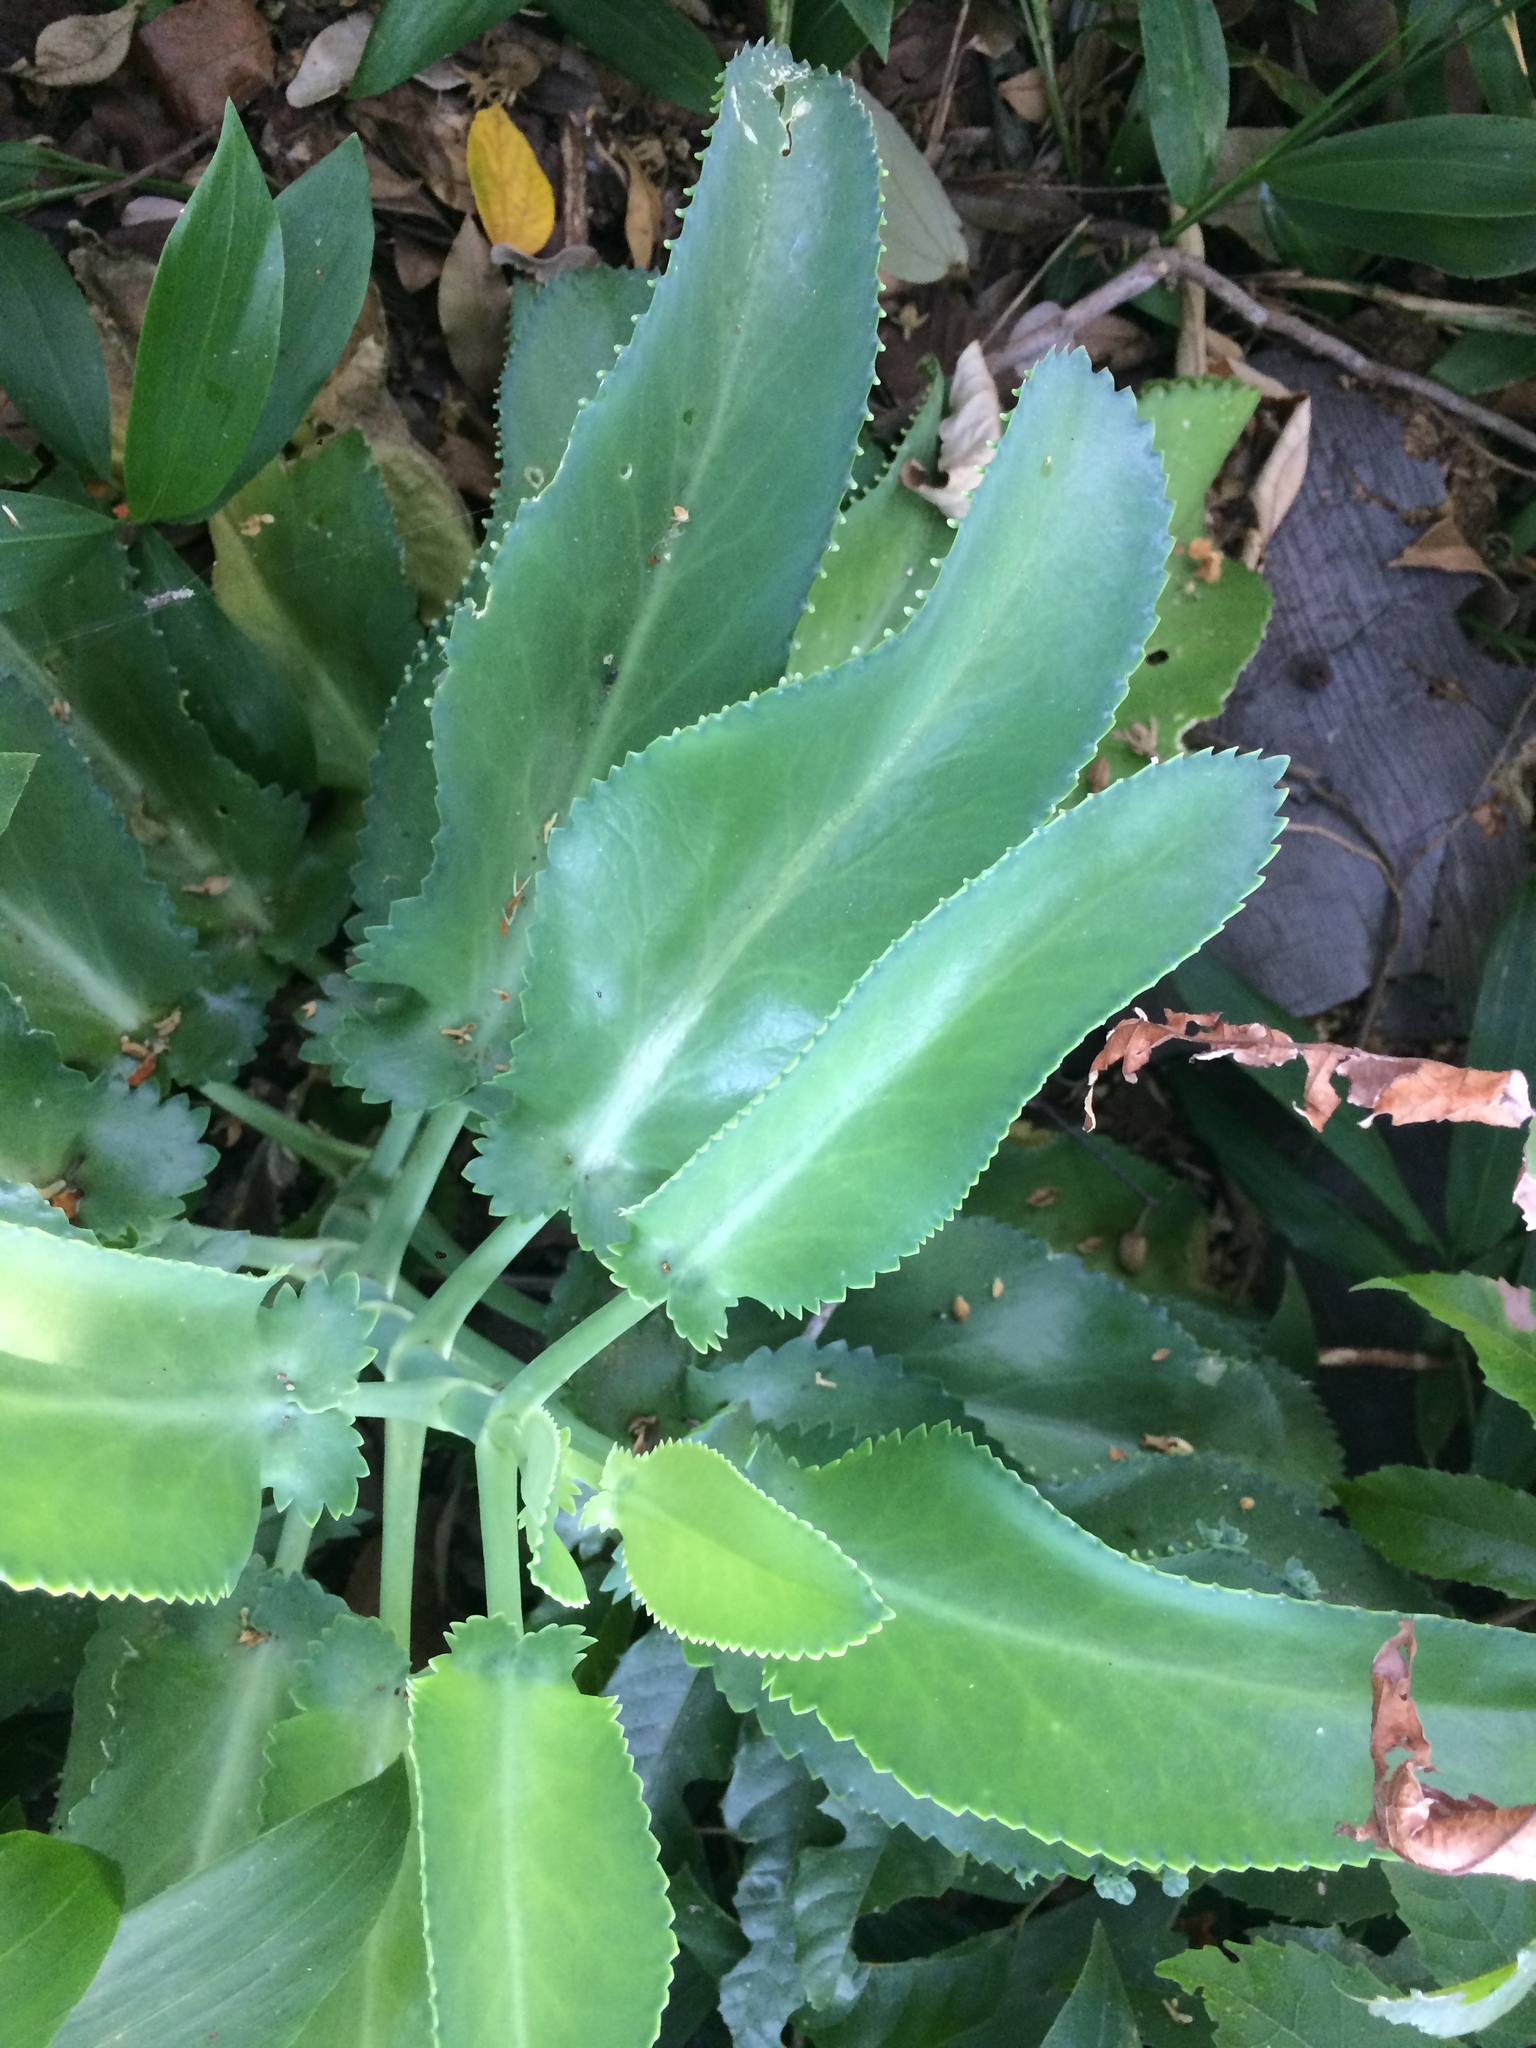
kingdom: Plantae
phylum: Tracheophyta
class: Magnoliopsida
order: Saxifragales
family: Crassulaceae
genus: Kalanchoe
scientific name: Kalanchoe laetivirens
